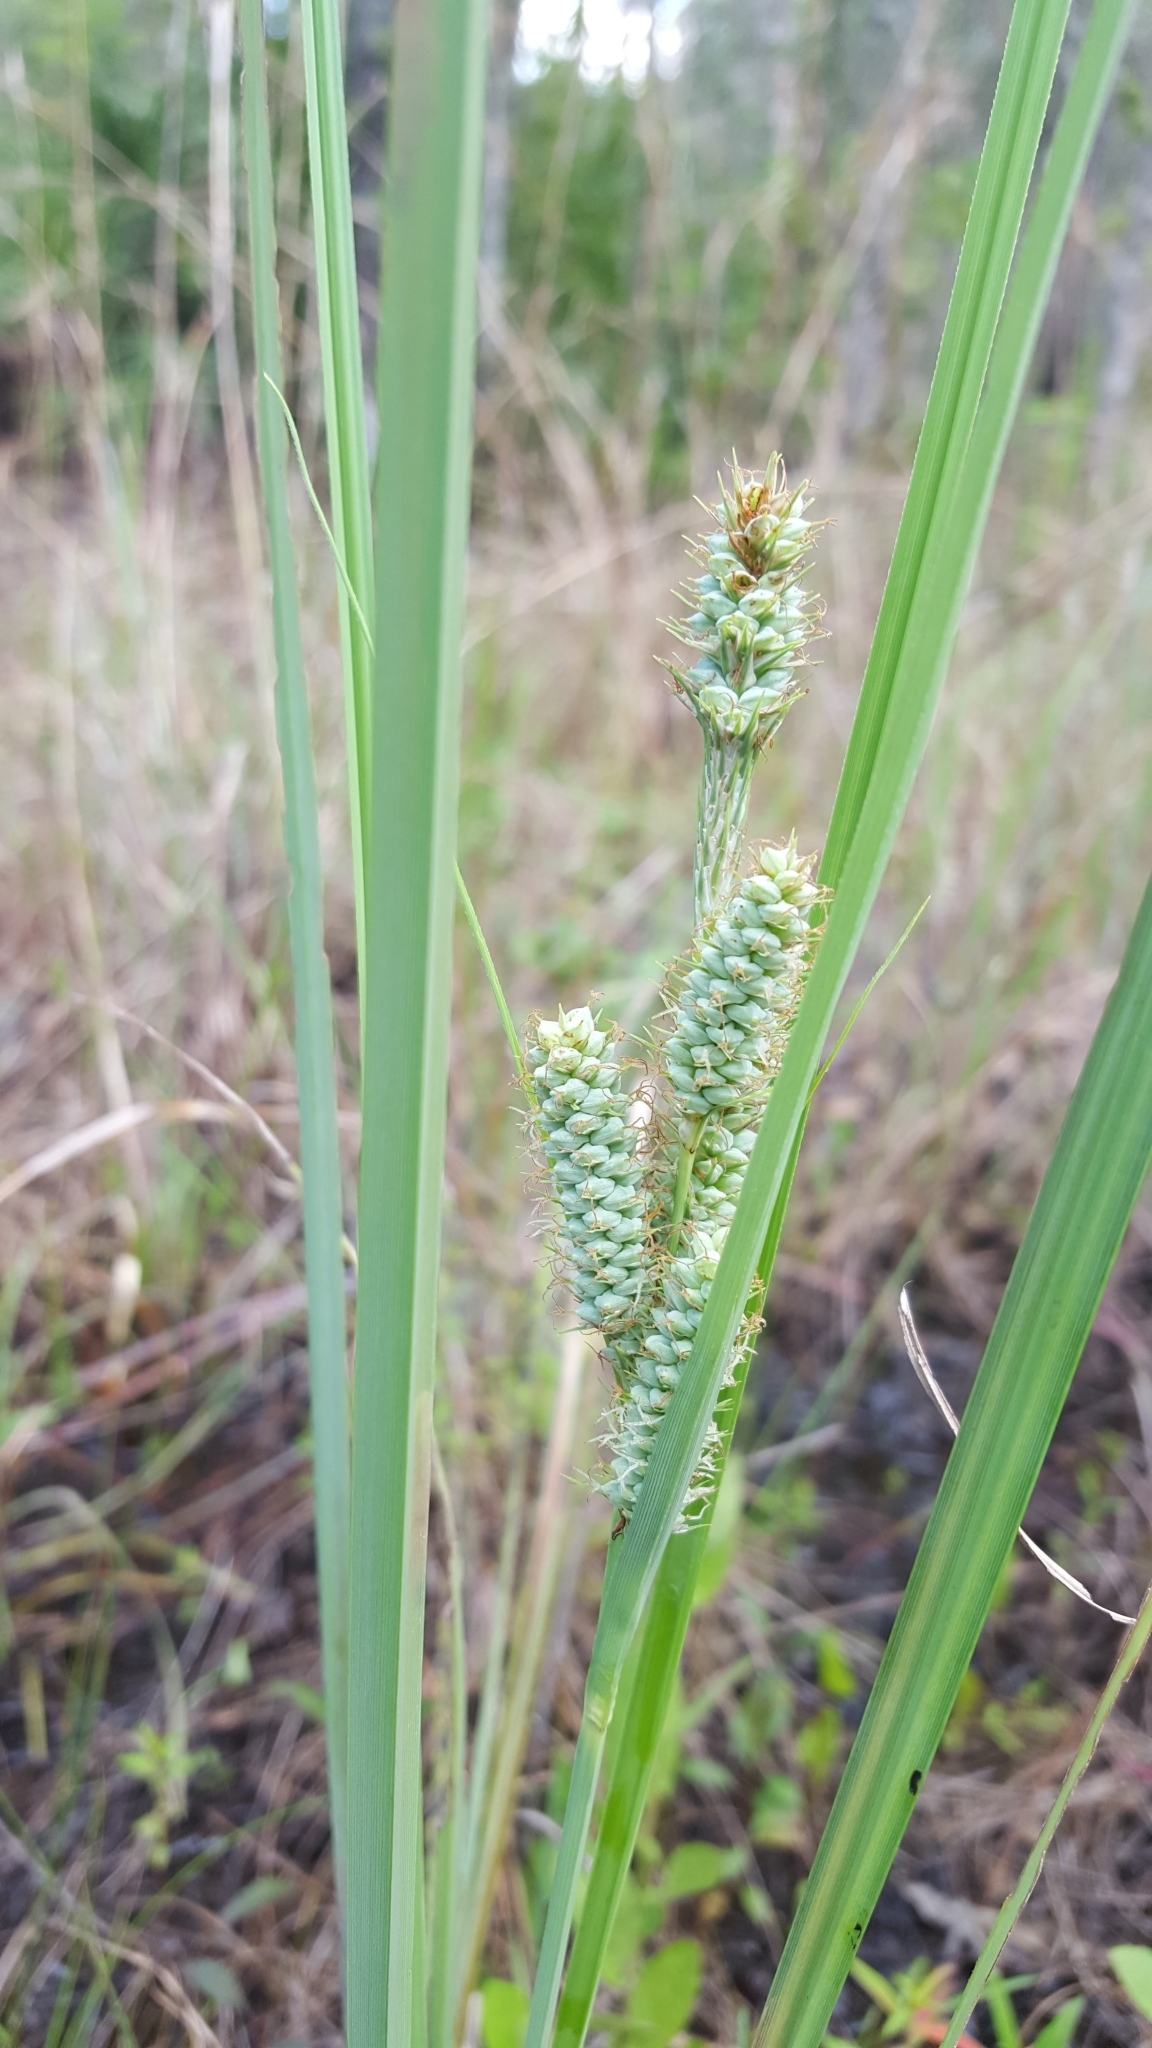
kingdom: Plantae
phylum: Tracheophyta
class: Liliopsida
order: Poales
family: Cyperaceae
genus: Carex
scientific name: Carex verrucosa
